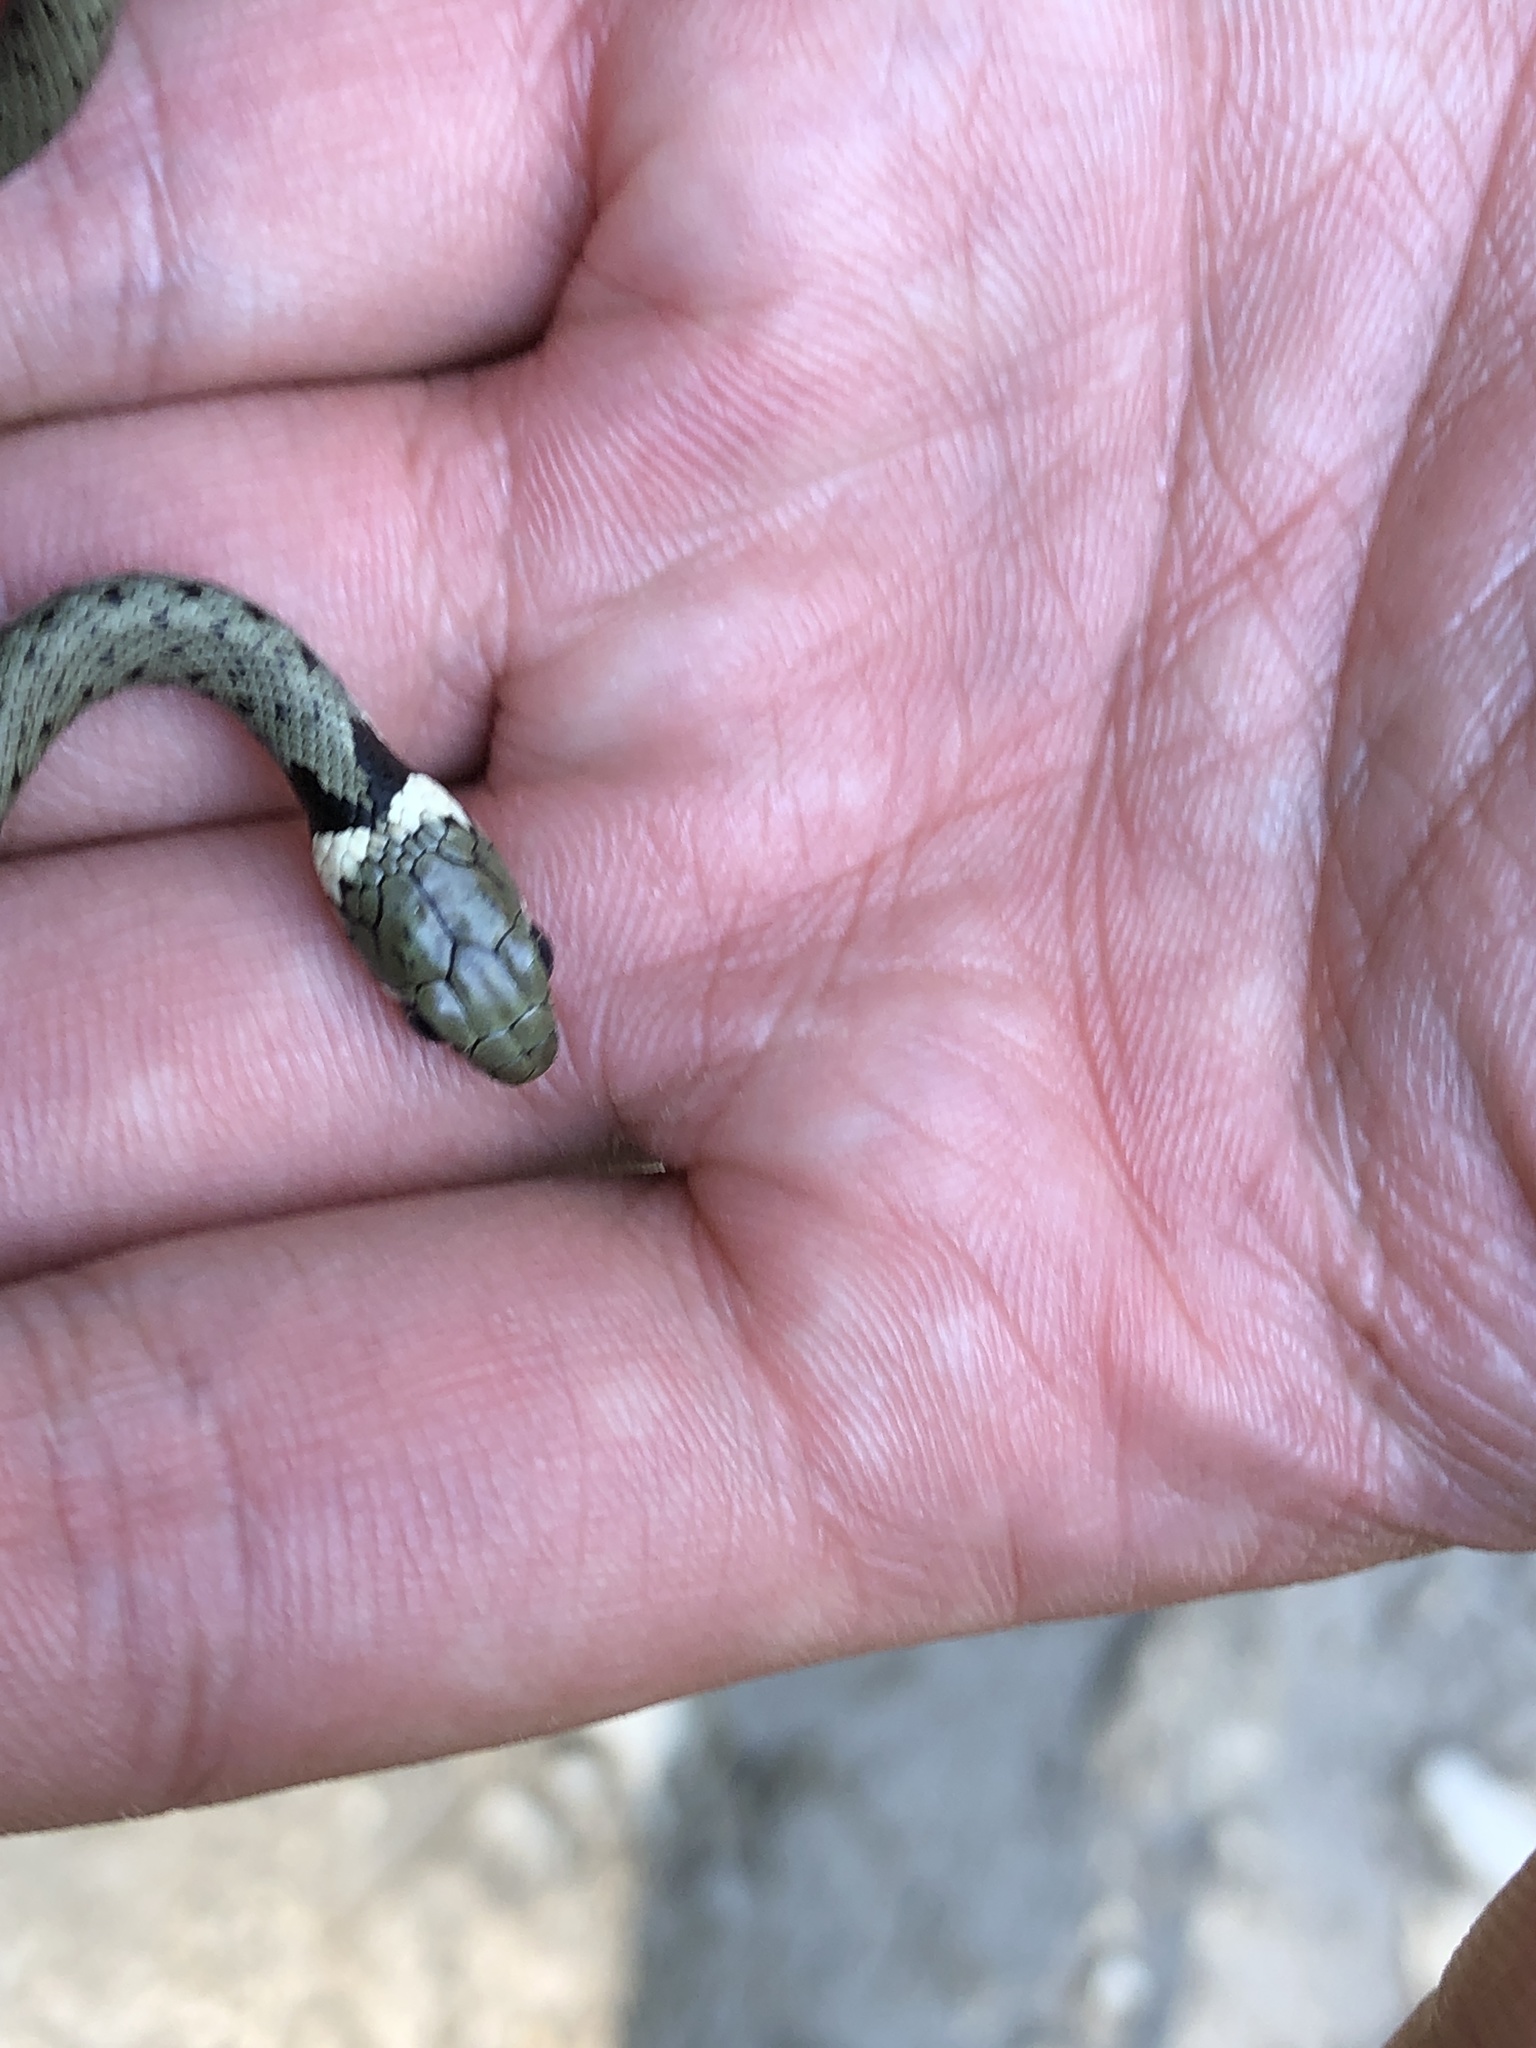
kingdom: Animalia
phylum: Chordata
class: Squamata
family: Colubridae
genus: Natrix
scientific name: Natrix helvetica
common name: Banded grass snake
